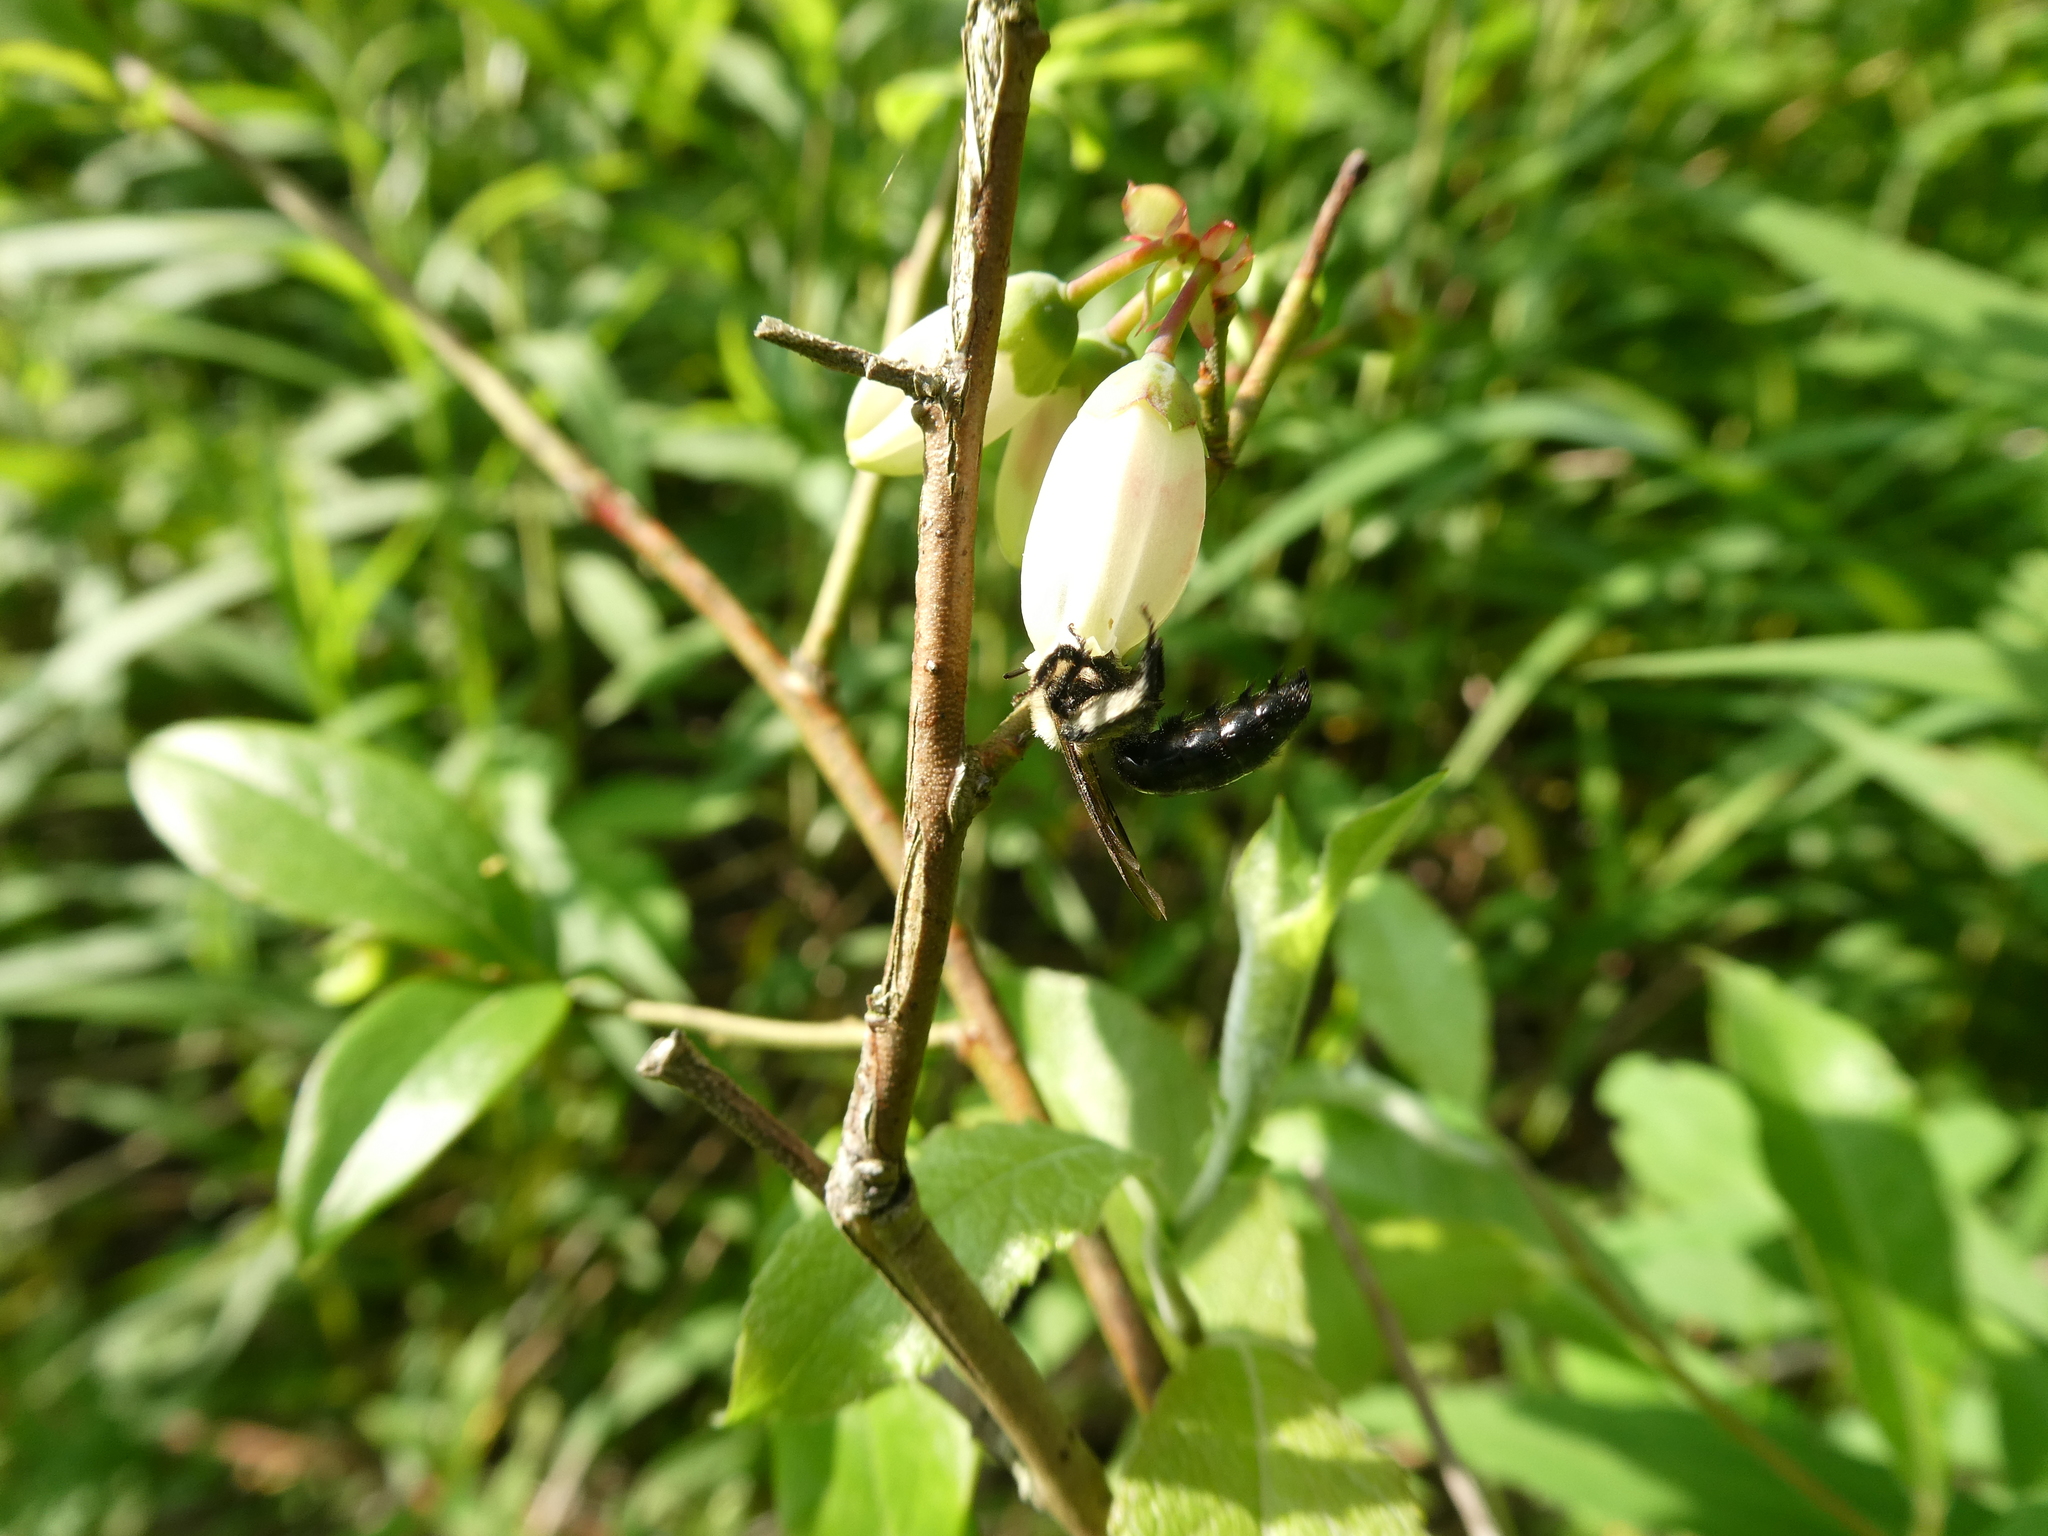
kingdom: Animalia
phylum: Arthropoda
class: Insecta
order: Hymenoptera
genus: Melandrena
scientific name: Melandrena
